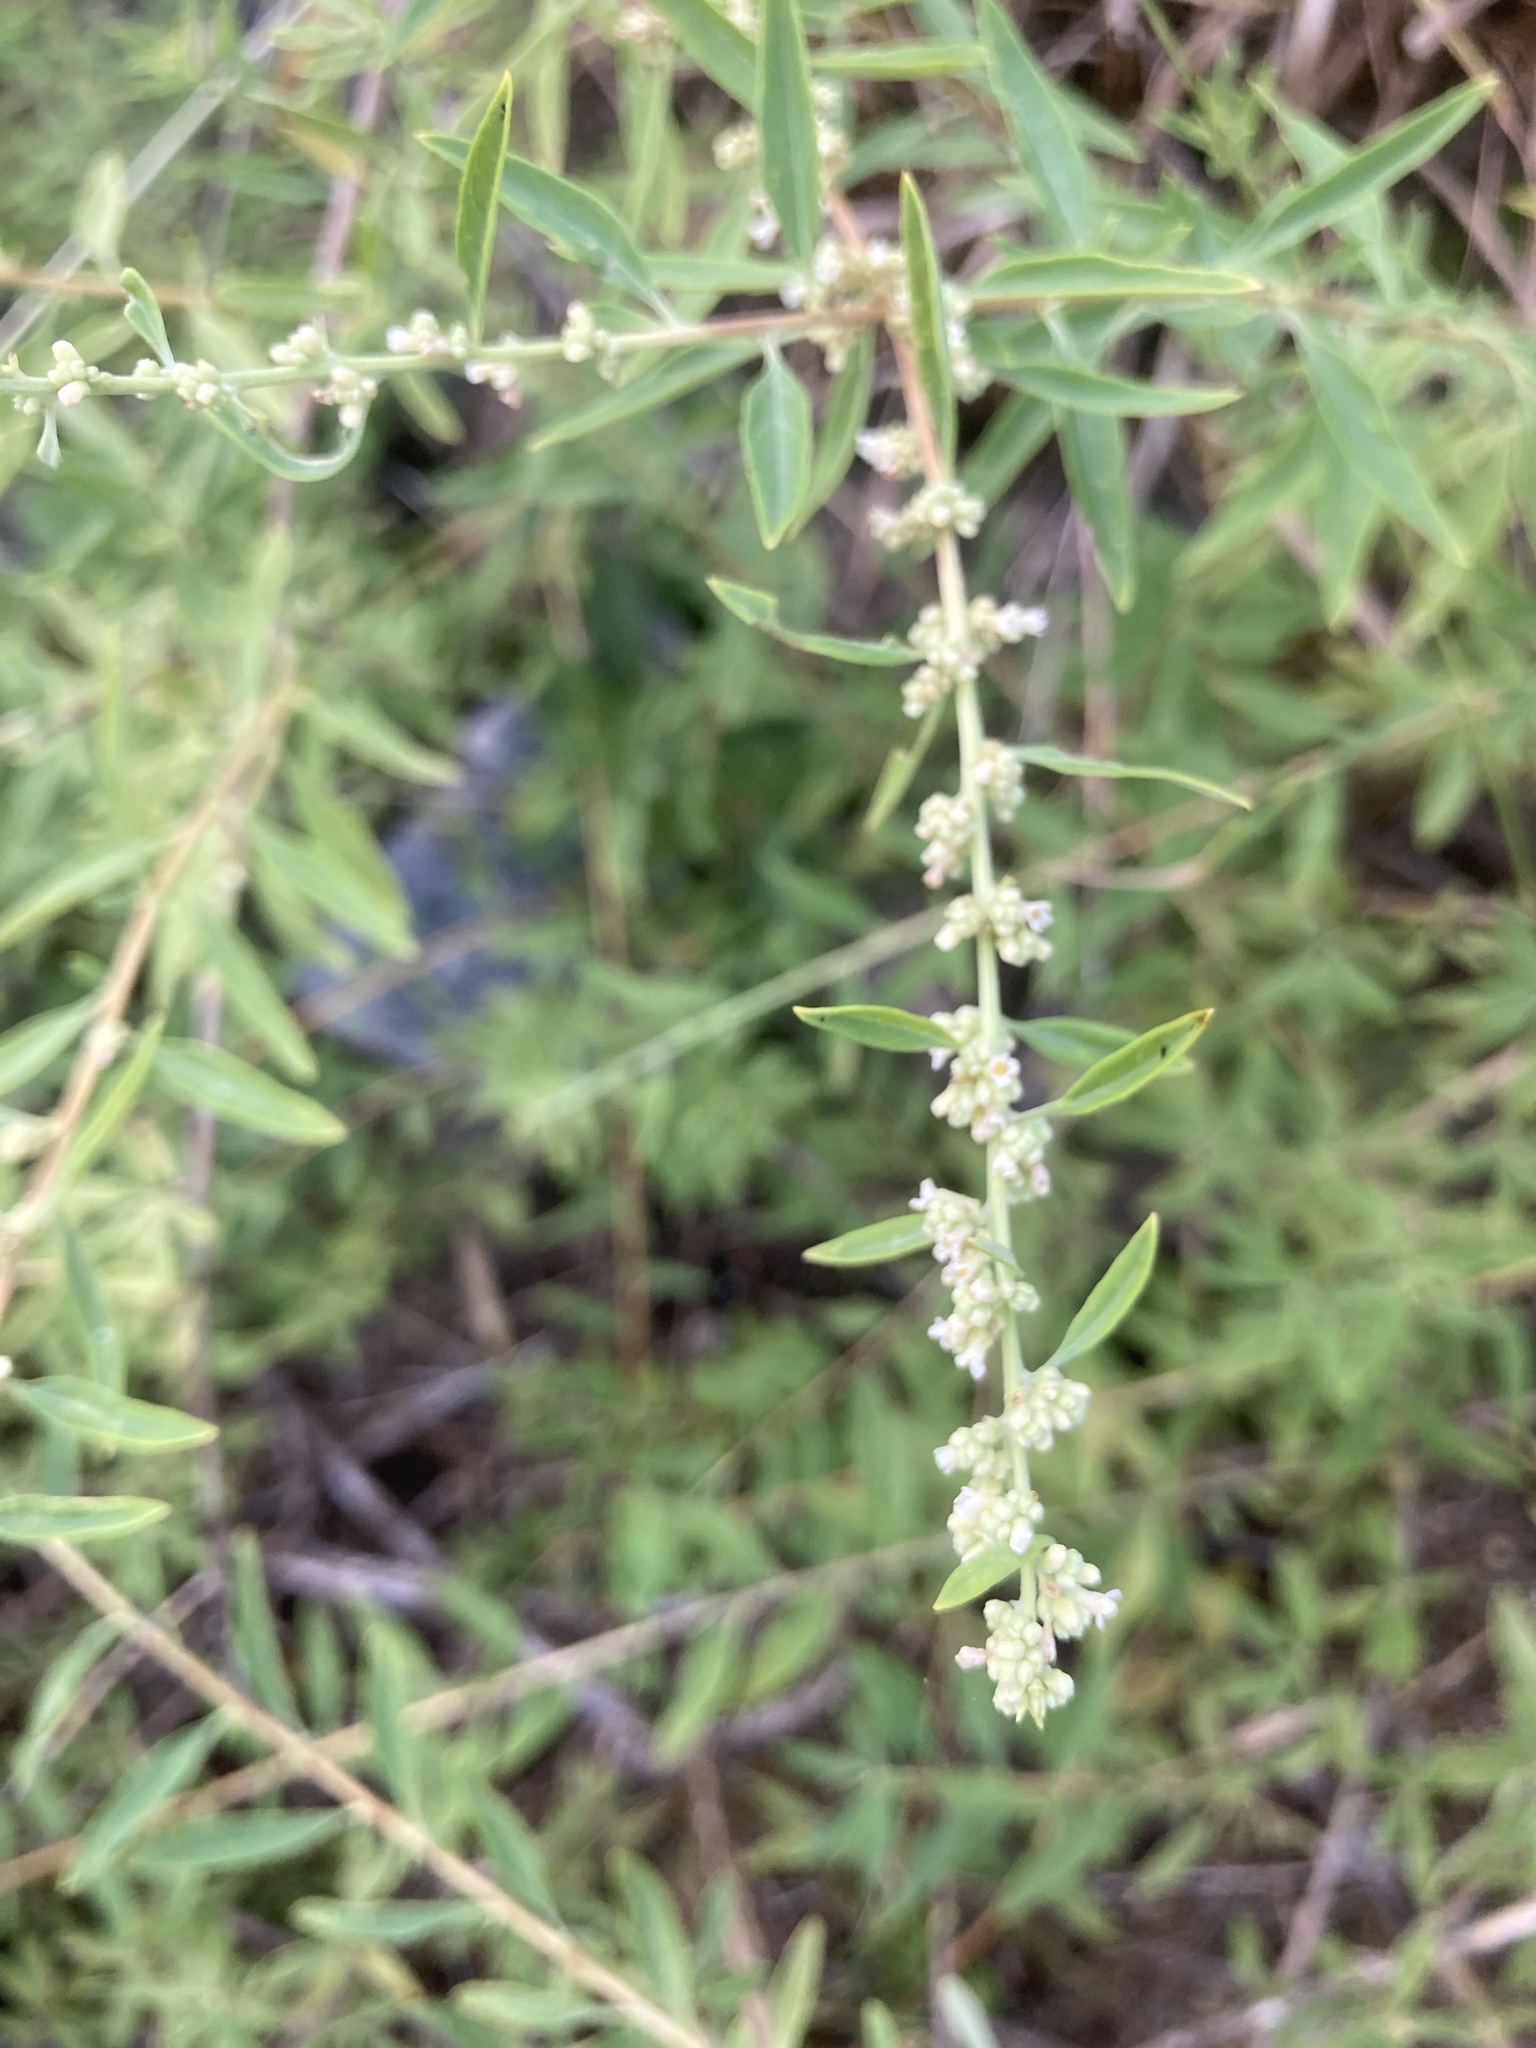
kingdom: Plantae
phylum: Tracheophyta
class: Magnoliopsida
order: Lamiales
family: Verbenaceae
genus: Aloysia
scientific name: Aloysia polystachya
